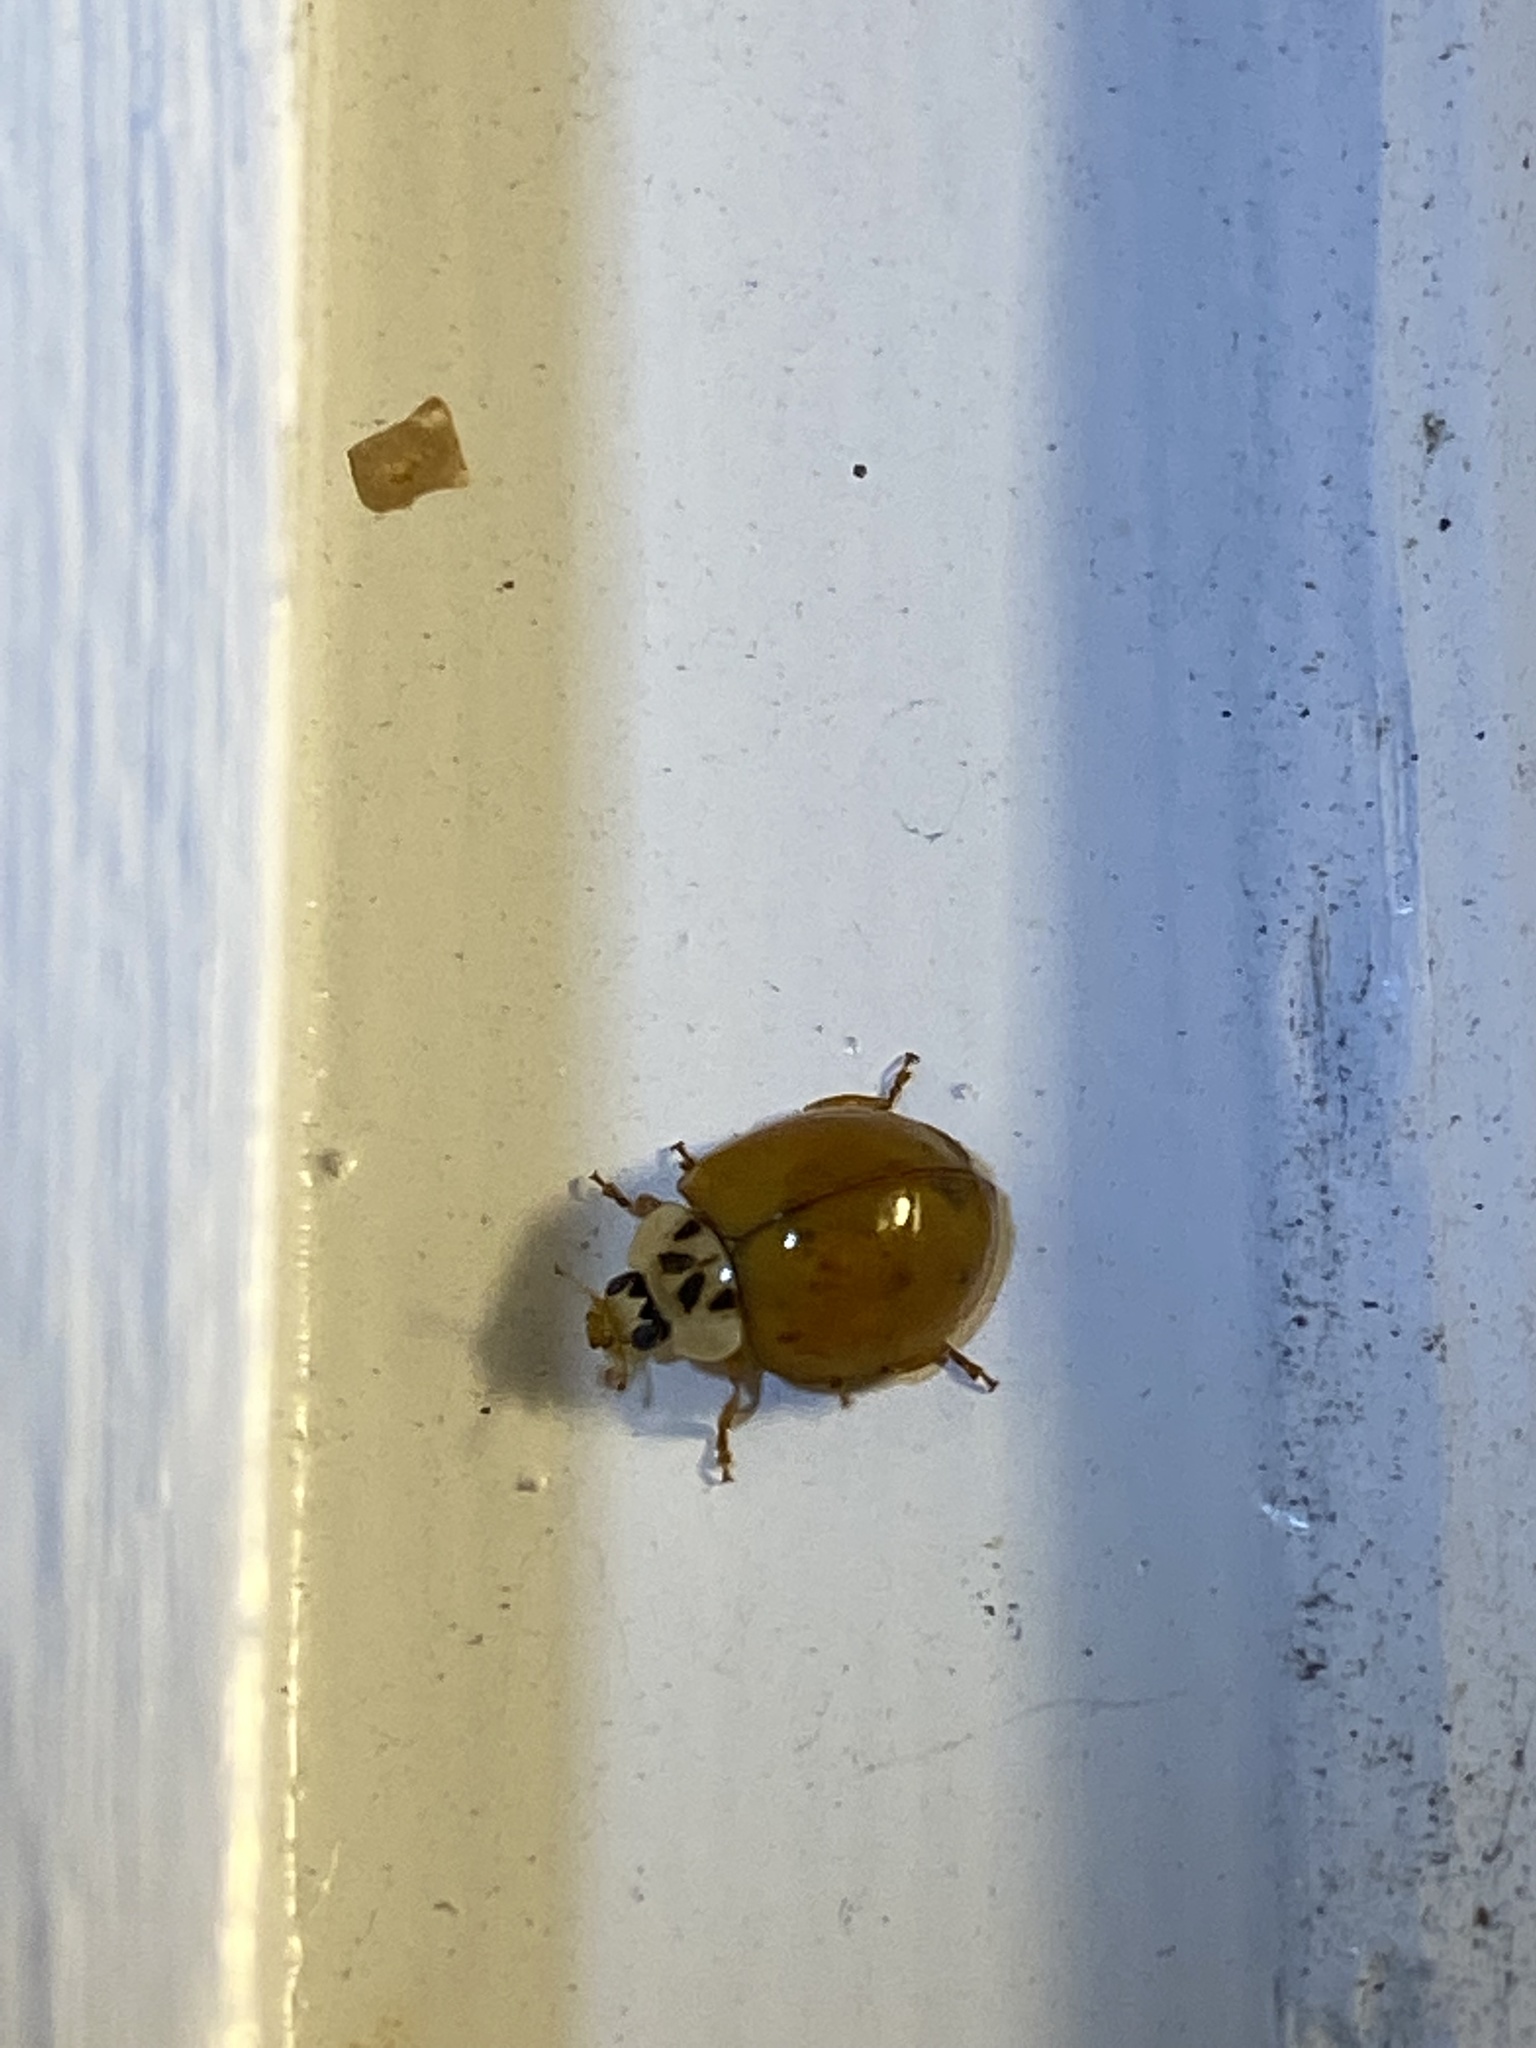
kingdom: Animalia
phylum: Arthropoda
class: Insecta
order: Coleoptera
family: Coccinellidae
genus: Harmonia
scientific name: Harmonia axyridis
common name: Harlequin ladybird
